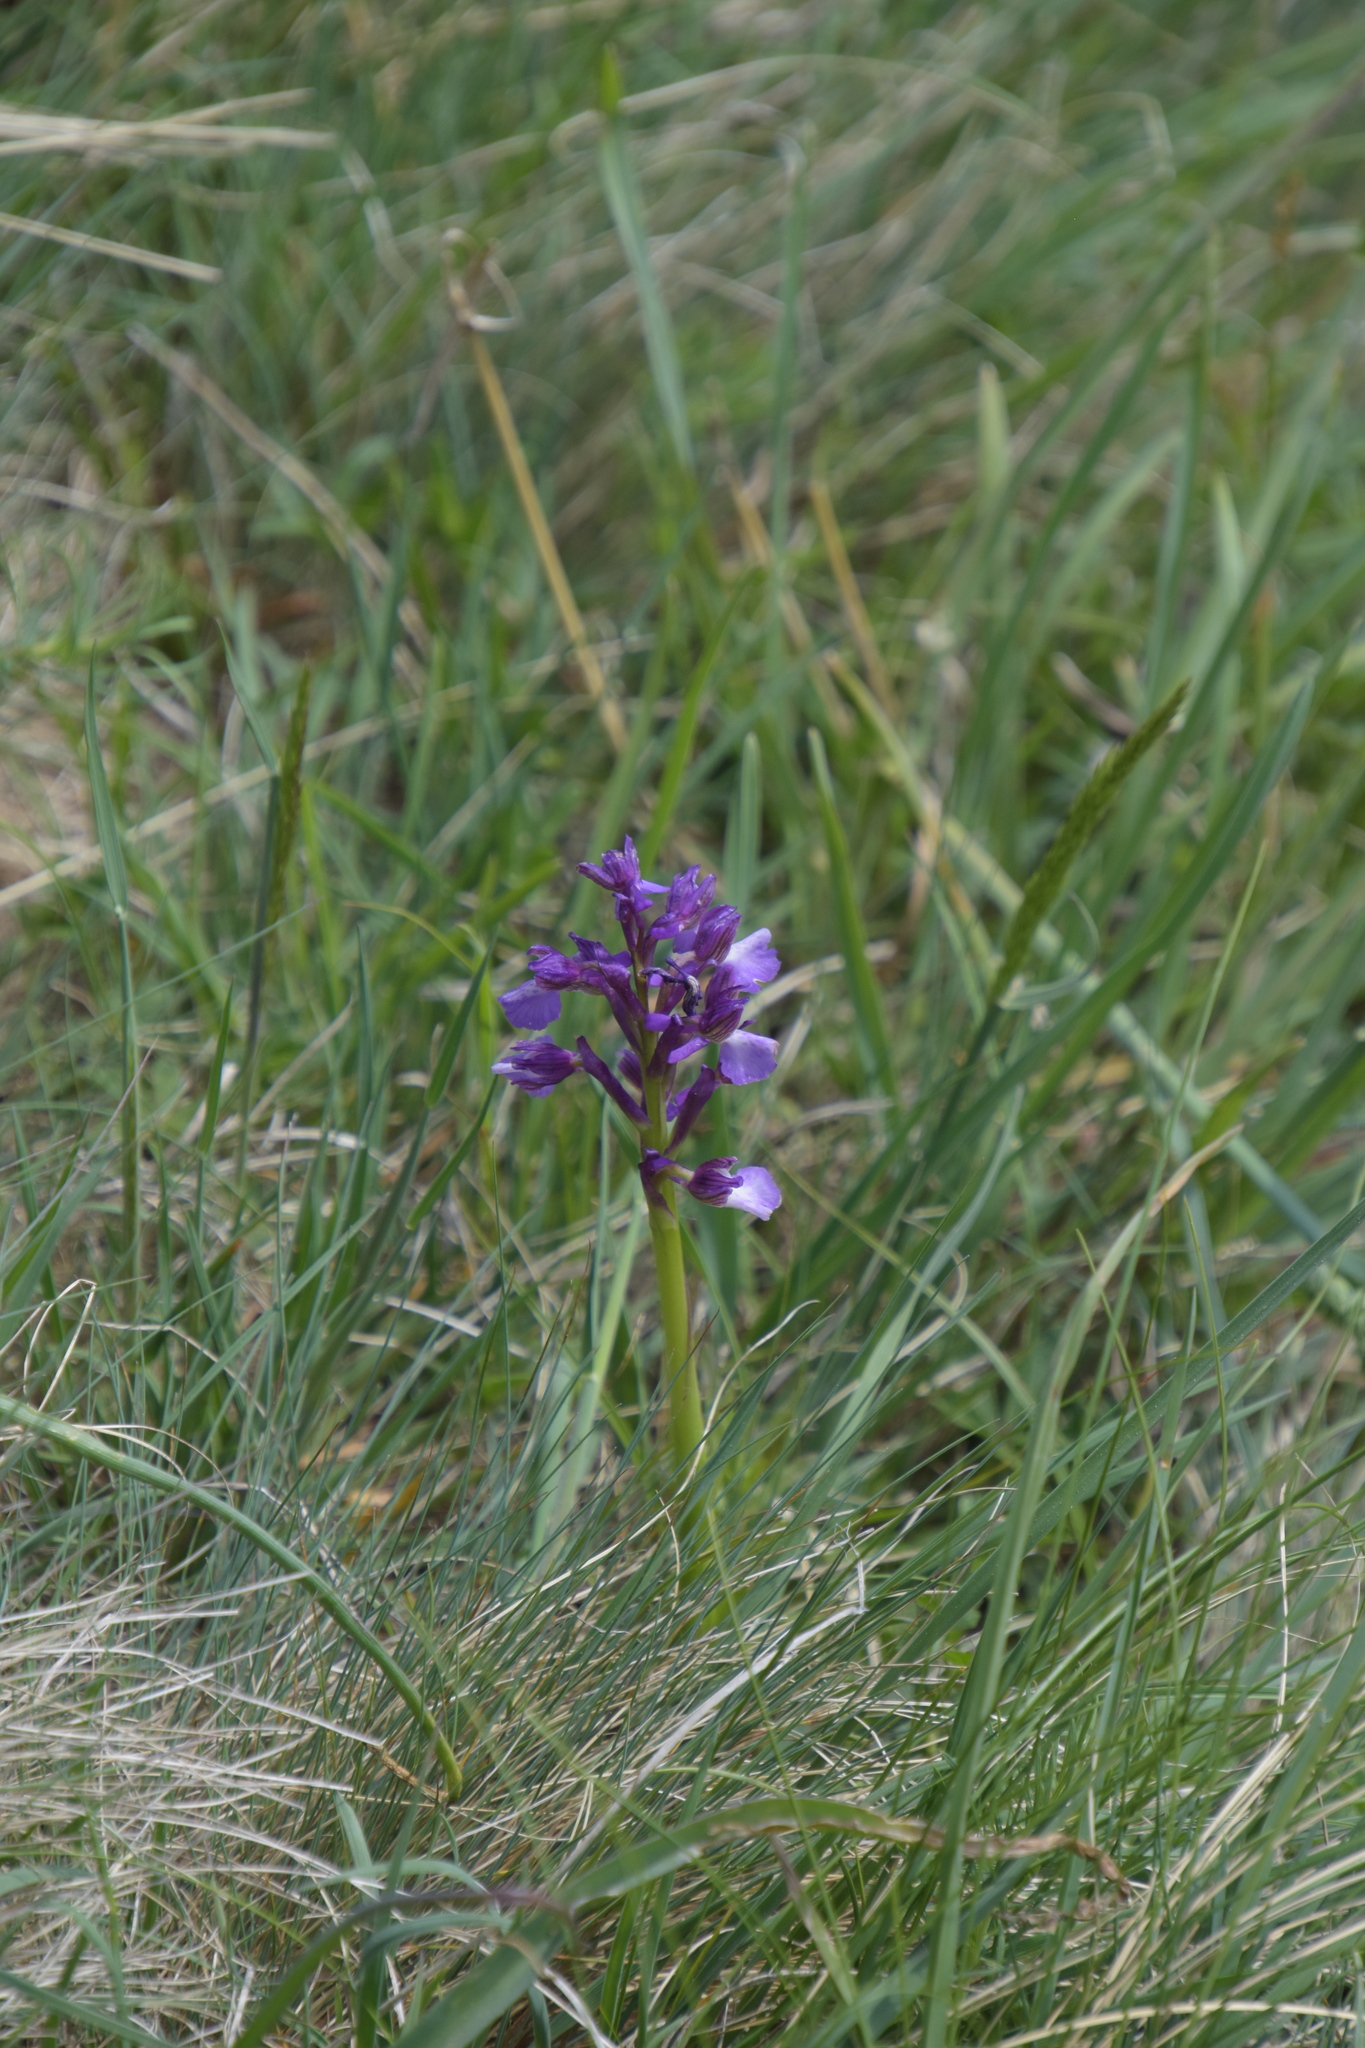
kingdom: Plantae
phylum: Tracheophyta
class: Liliopsida
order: Asparagales
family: Orchidaceae
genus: Anacamptis
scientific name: Anacamptis morio
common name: Green-winged orchid
